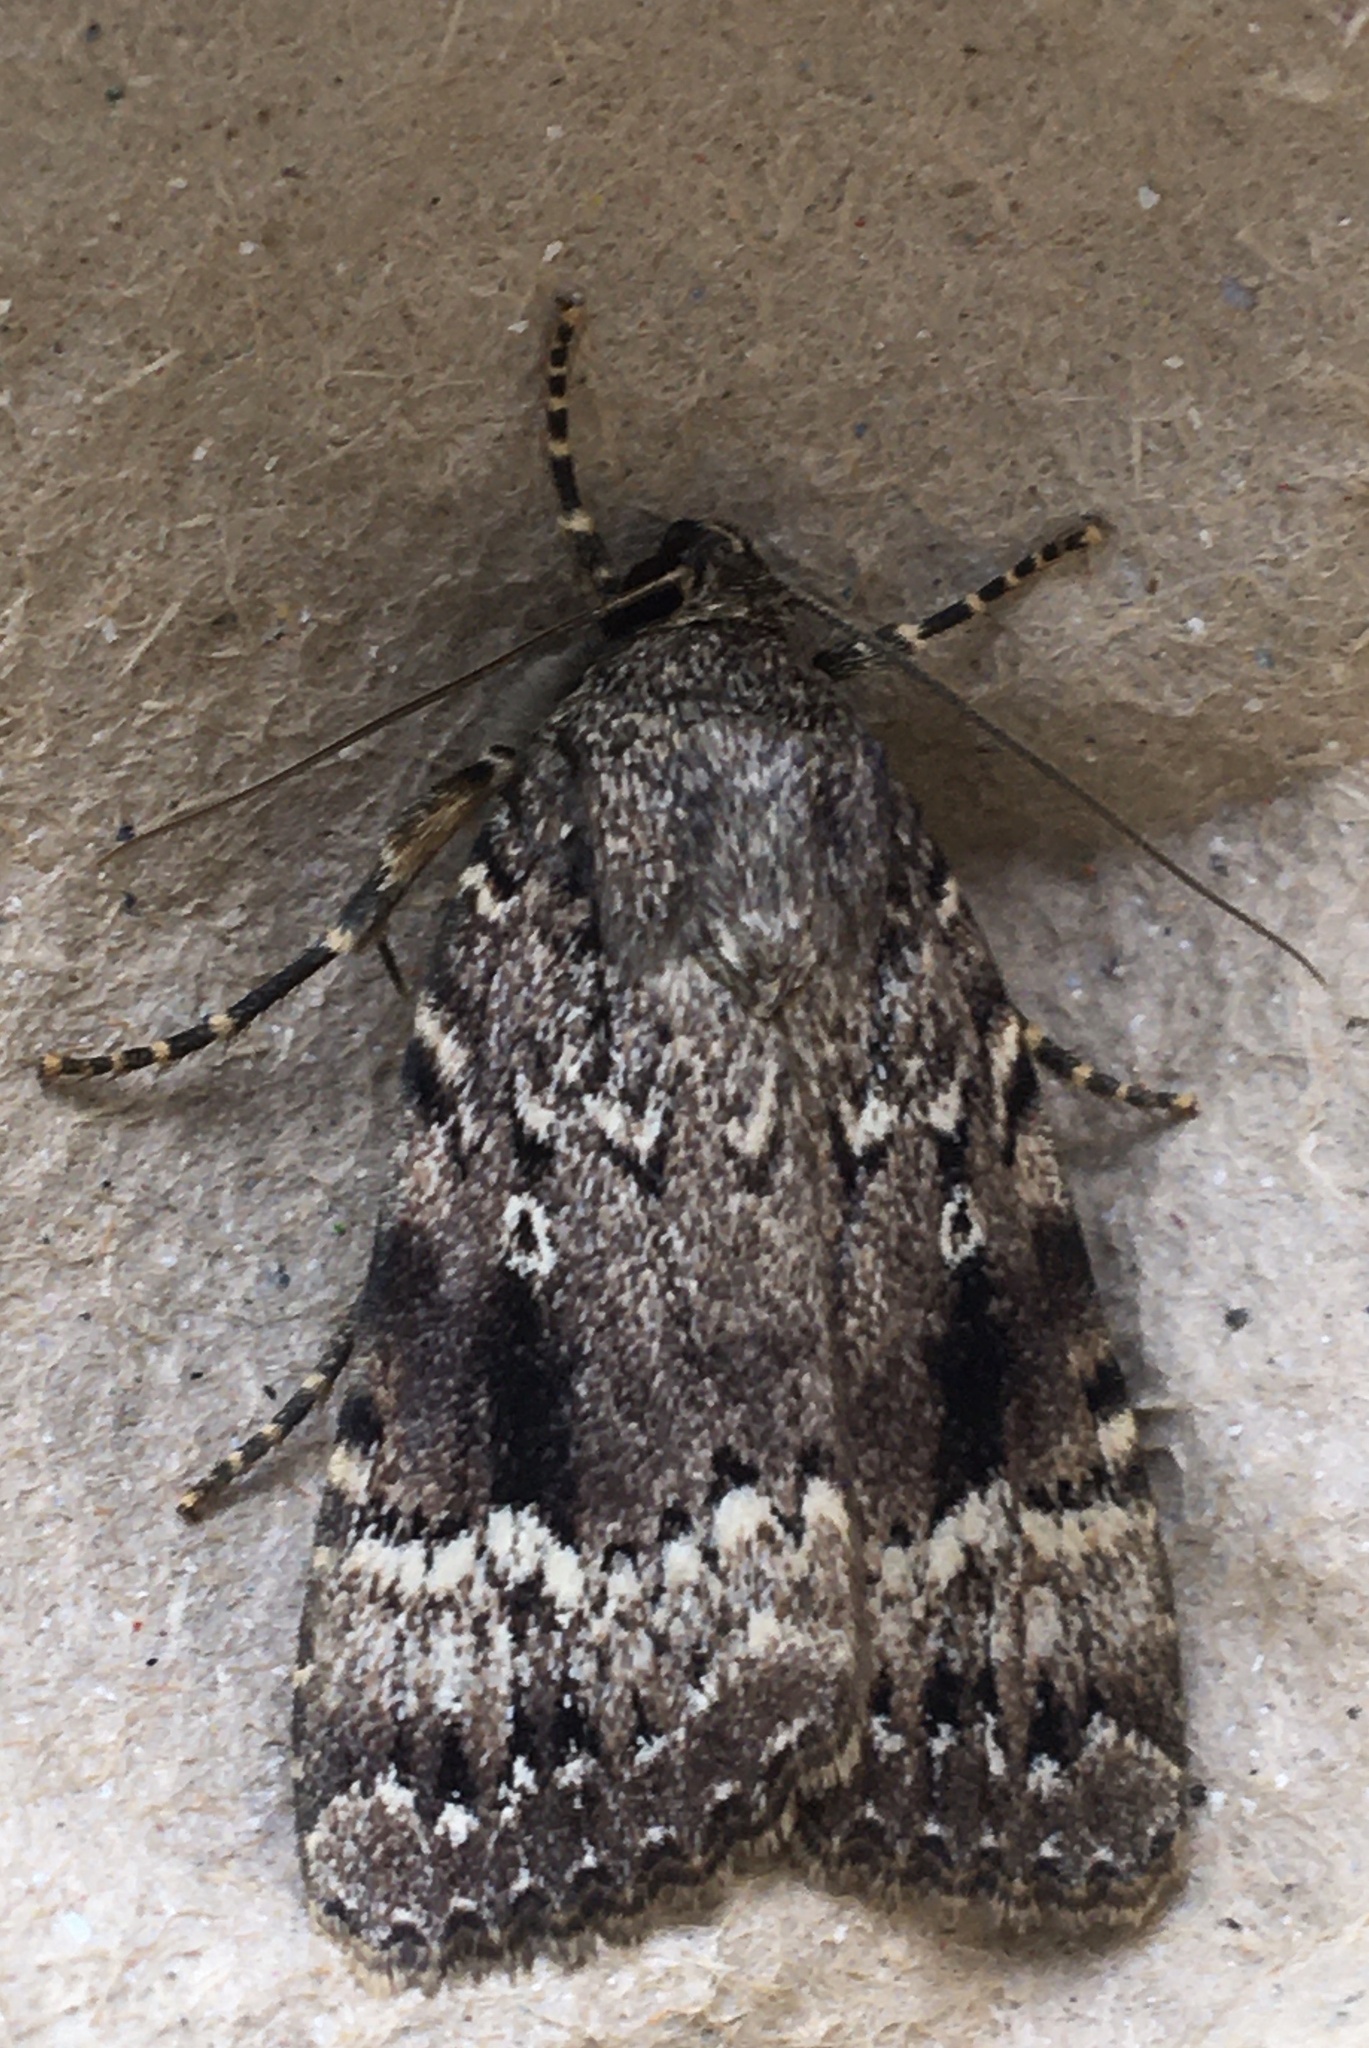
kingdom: Animalia
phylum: Arthropoda
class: Insecta
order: Lepidoptera
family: Noctuidae
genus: Amphipyra
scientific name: Amphipyra pyramidea
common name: Copper underwing
